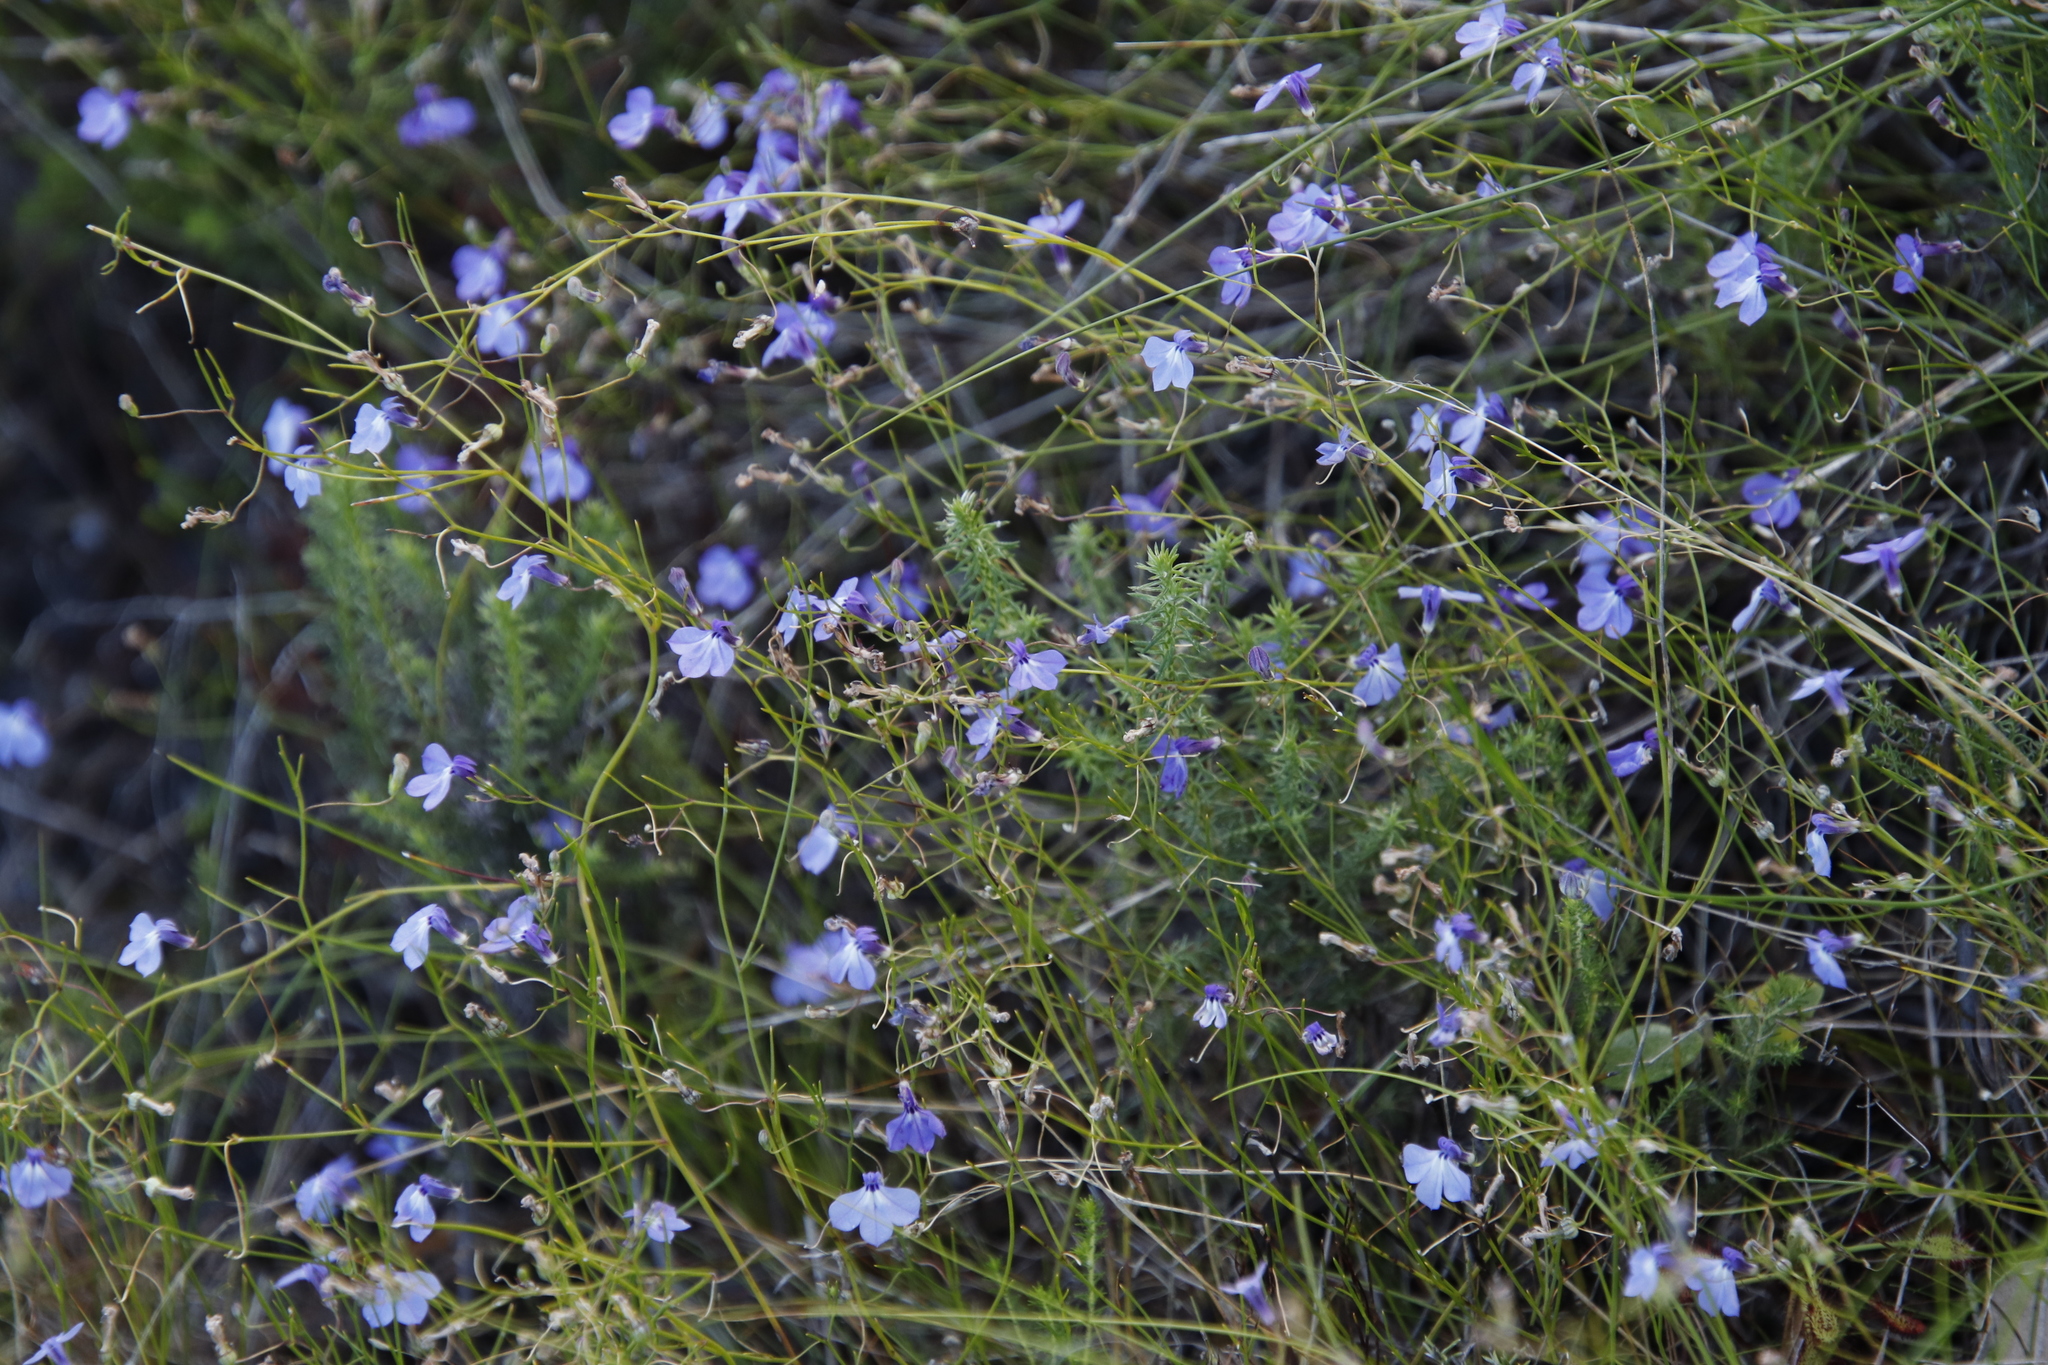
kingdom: Plantae
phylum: Tracheophyta
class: Magnoliopsida
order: Asterales
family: Campanulaceae
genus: Lobelia
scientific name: Lobelia setacea
